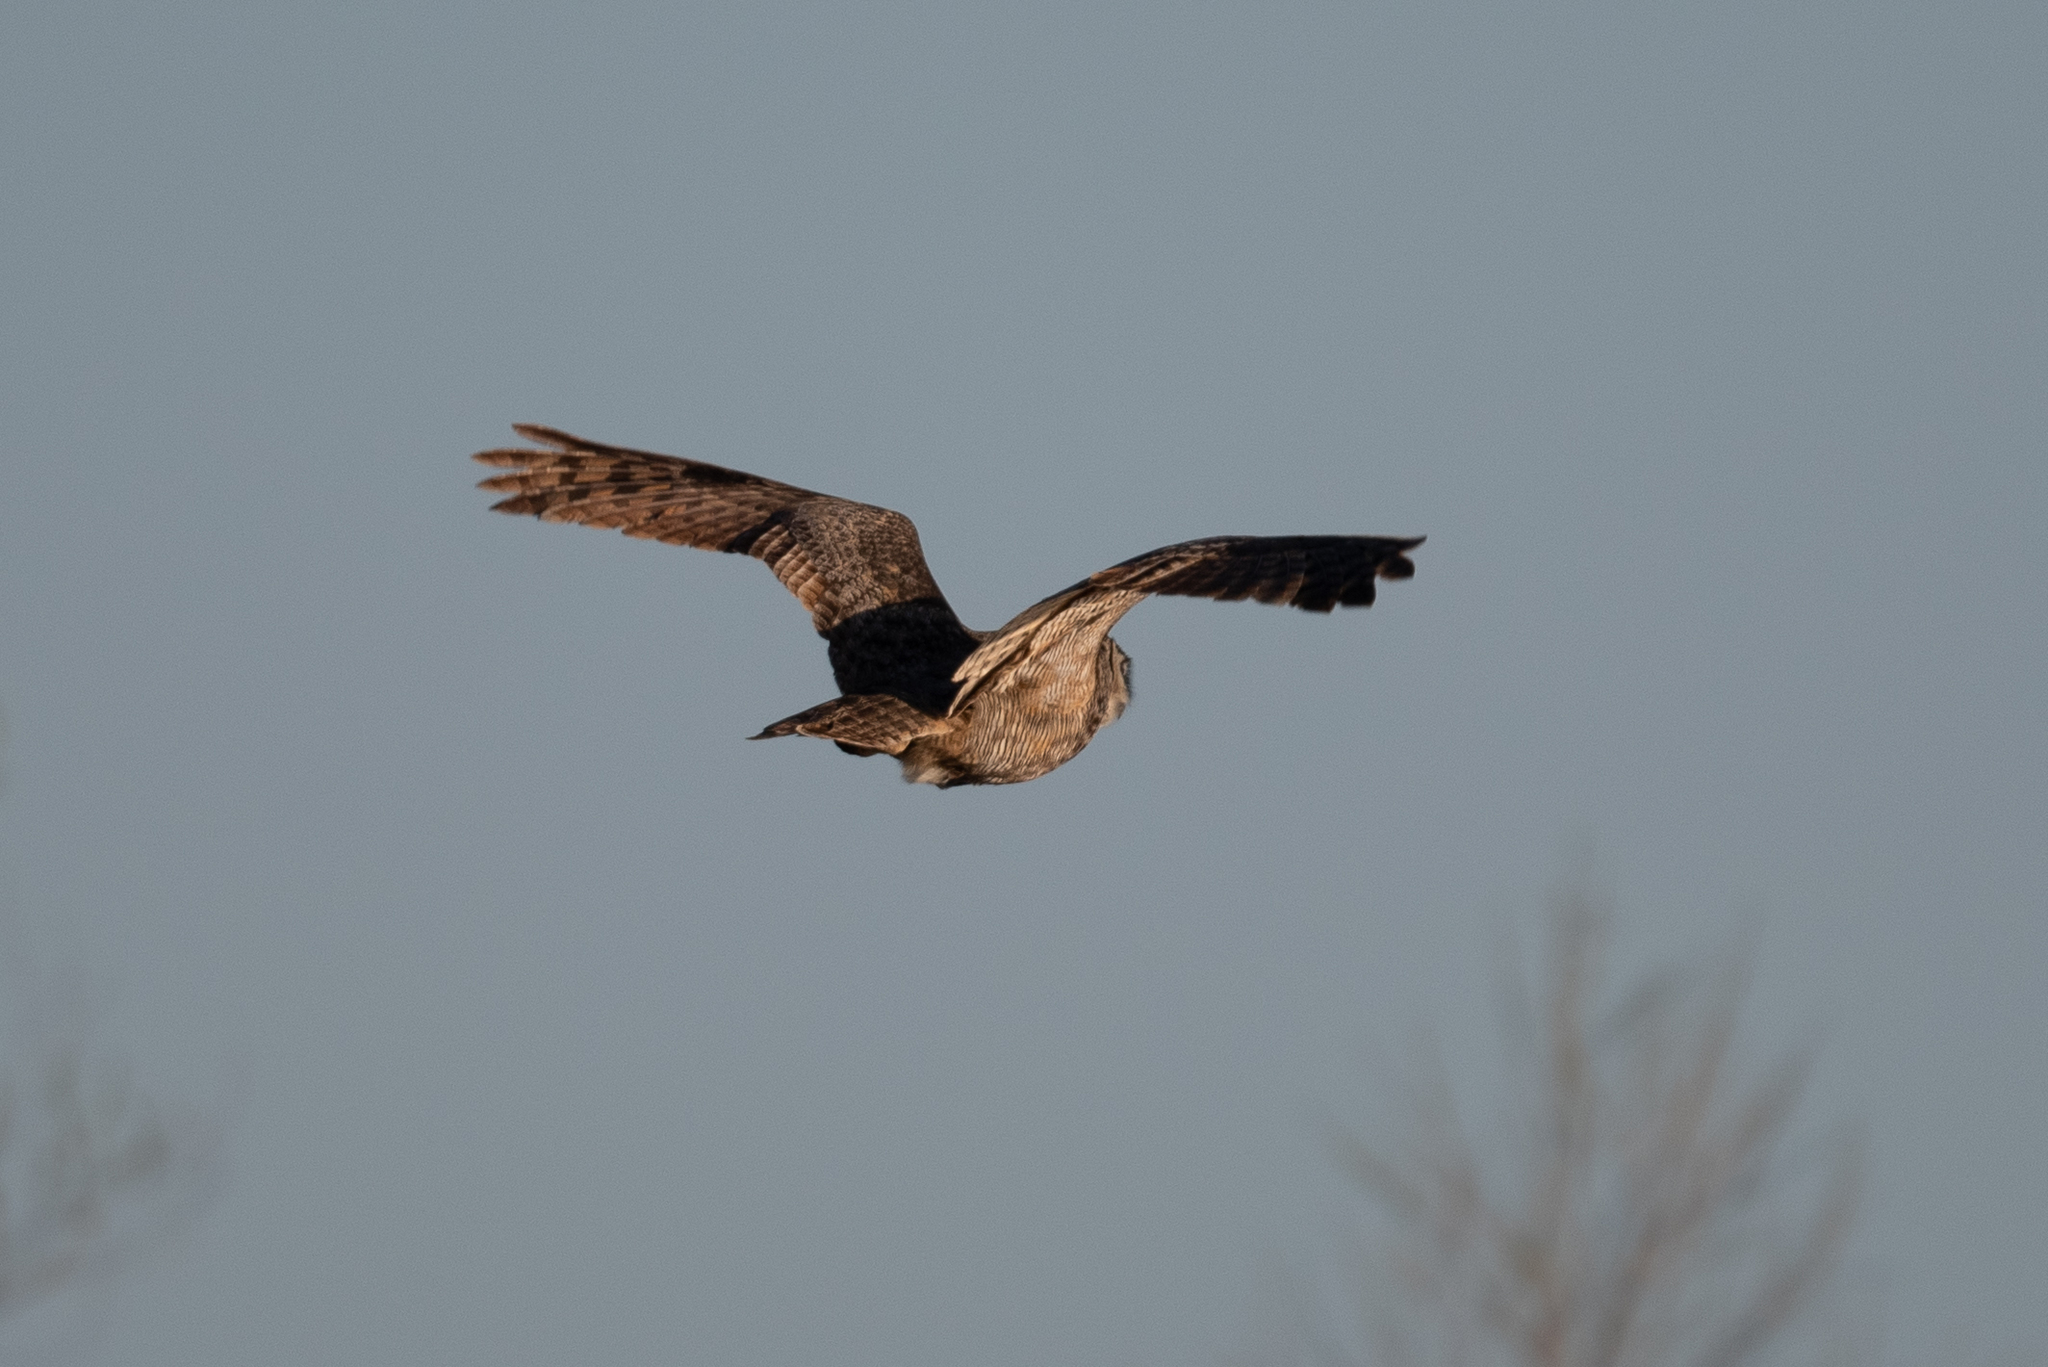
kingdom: Animalia
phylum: Chordata
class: Aves
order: Strigiformes
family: Strigidae
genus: Bubo
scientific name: Bubo virginianus
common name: Great horned owl
